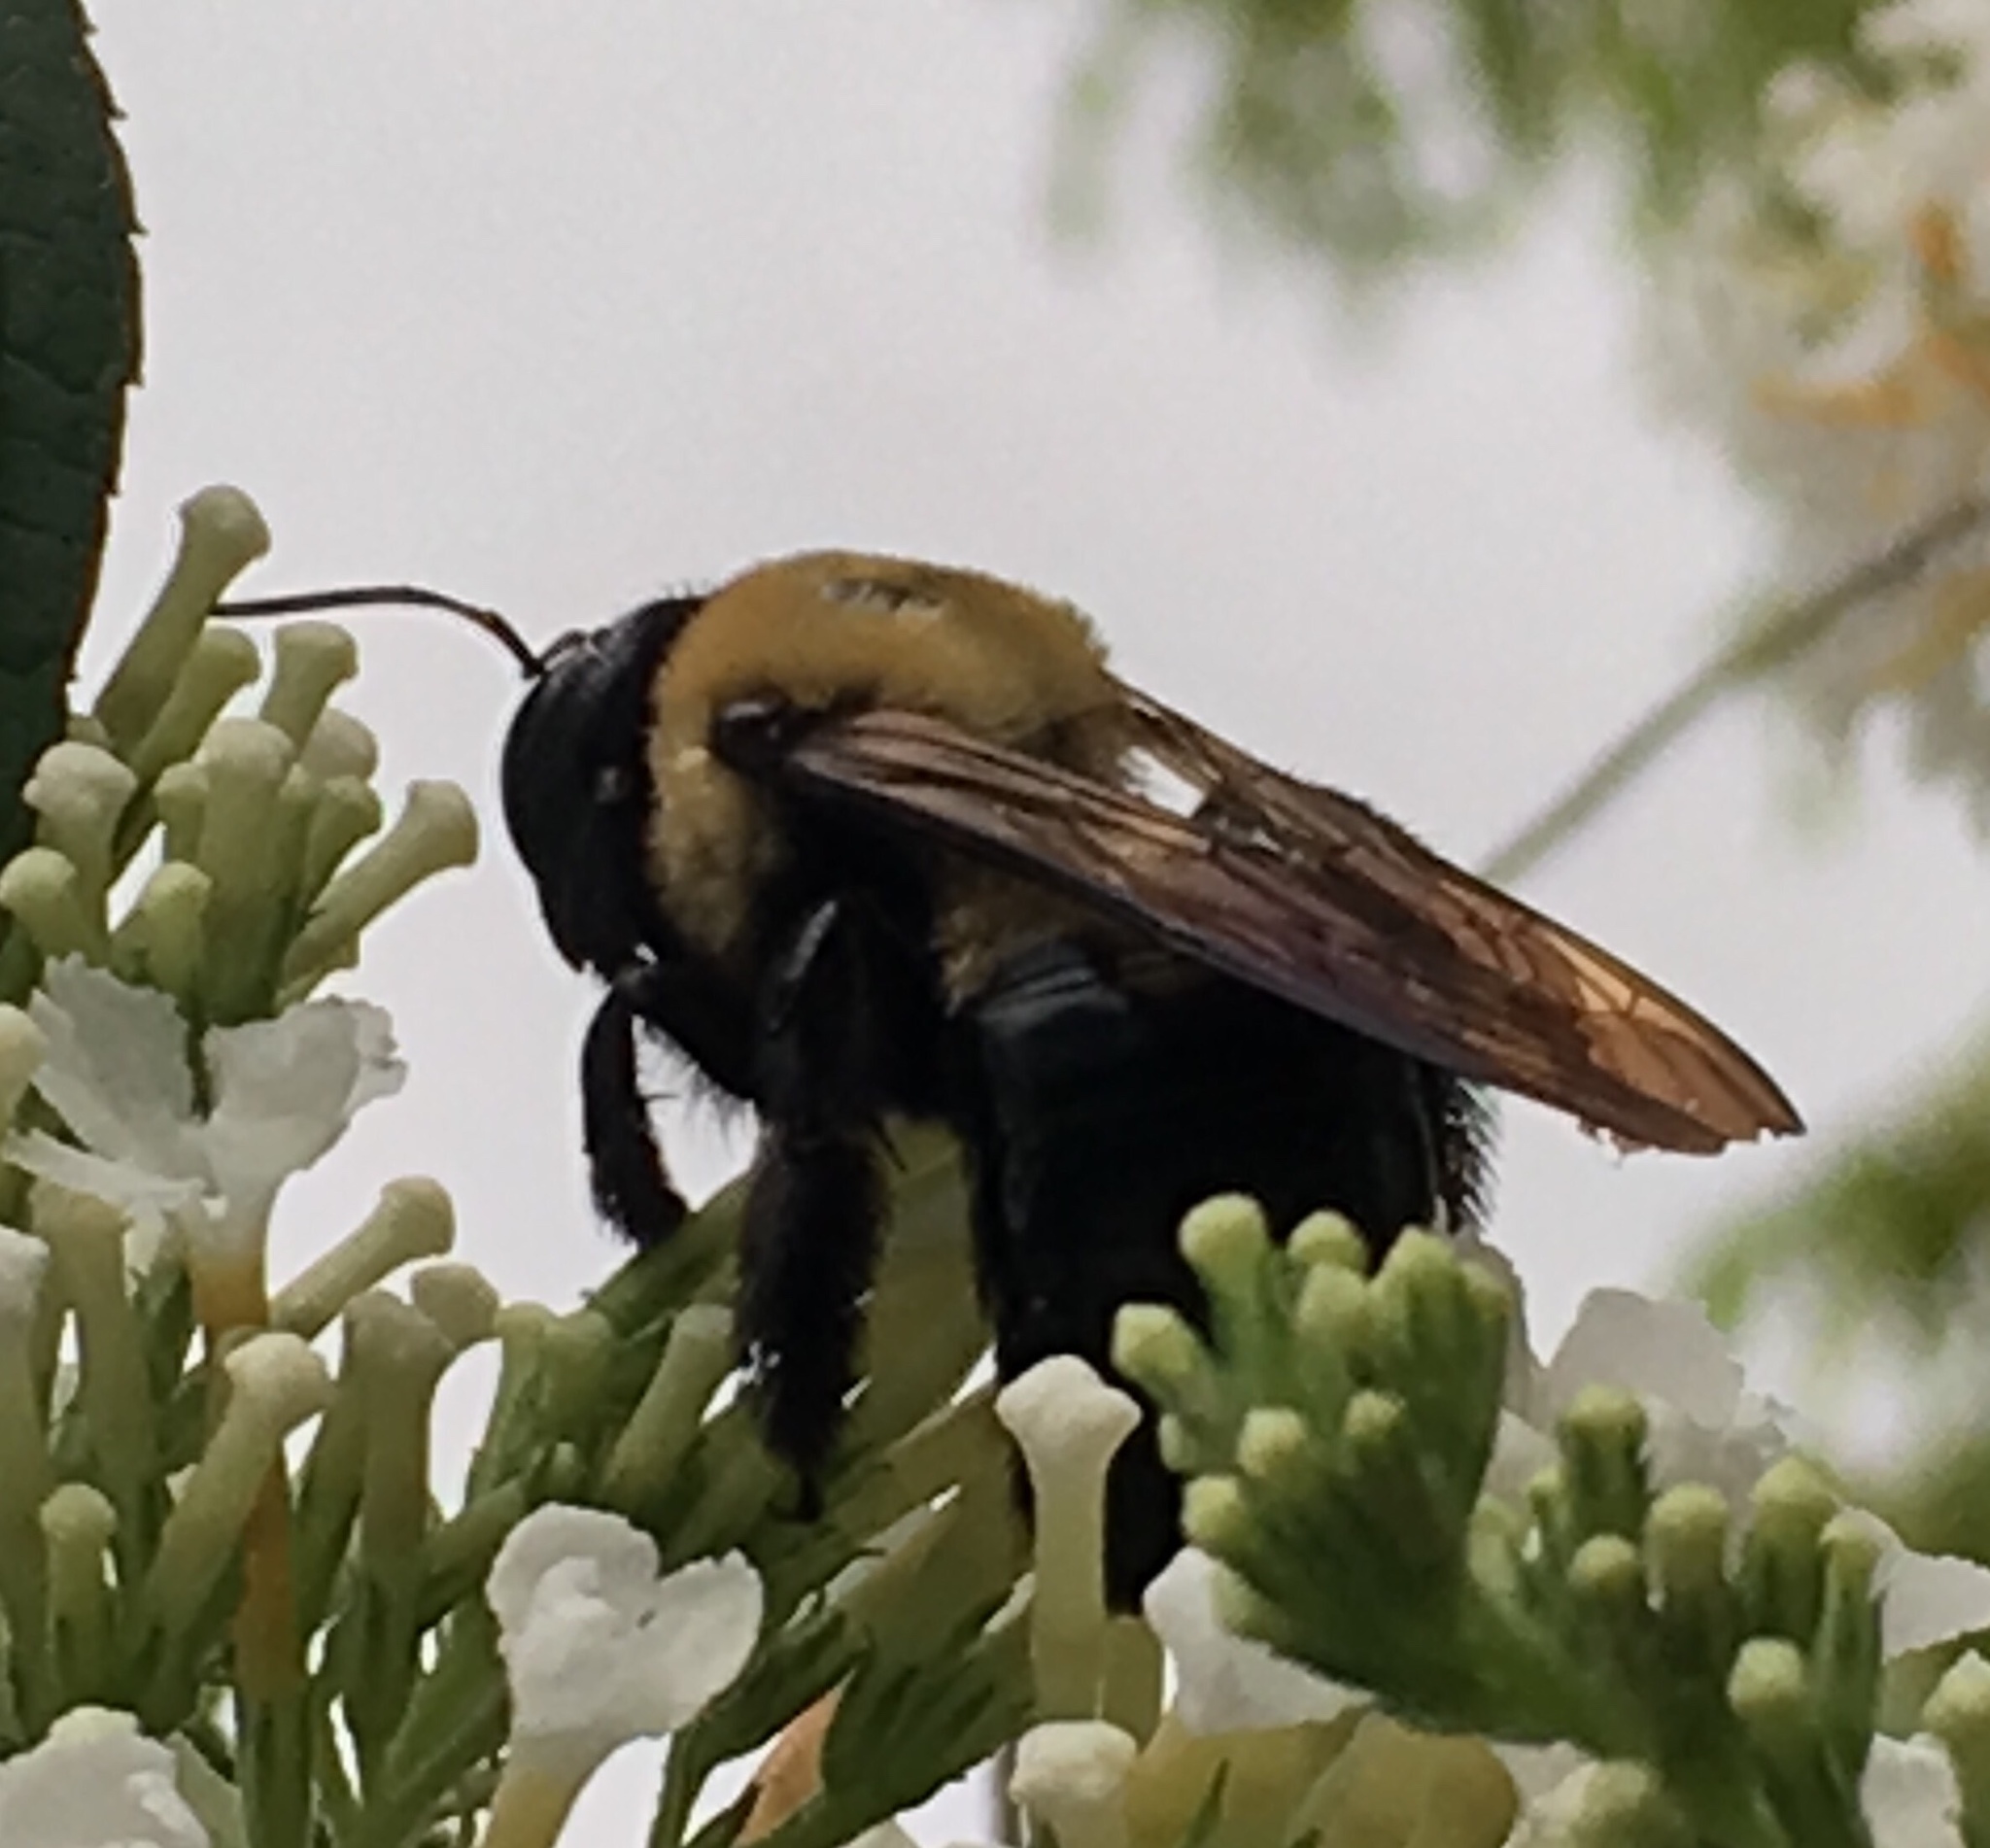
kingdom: Animalia
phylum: Arthropoda
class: Insecta
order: Hymenoptera
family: Apidae
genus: Xylocopa
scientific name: Xylocopa virginica
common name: Carpenter bee
